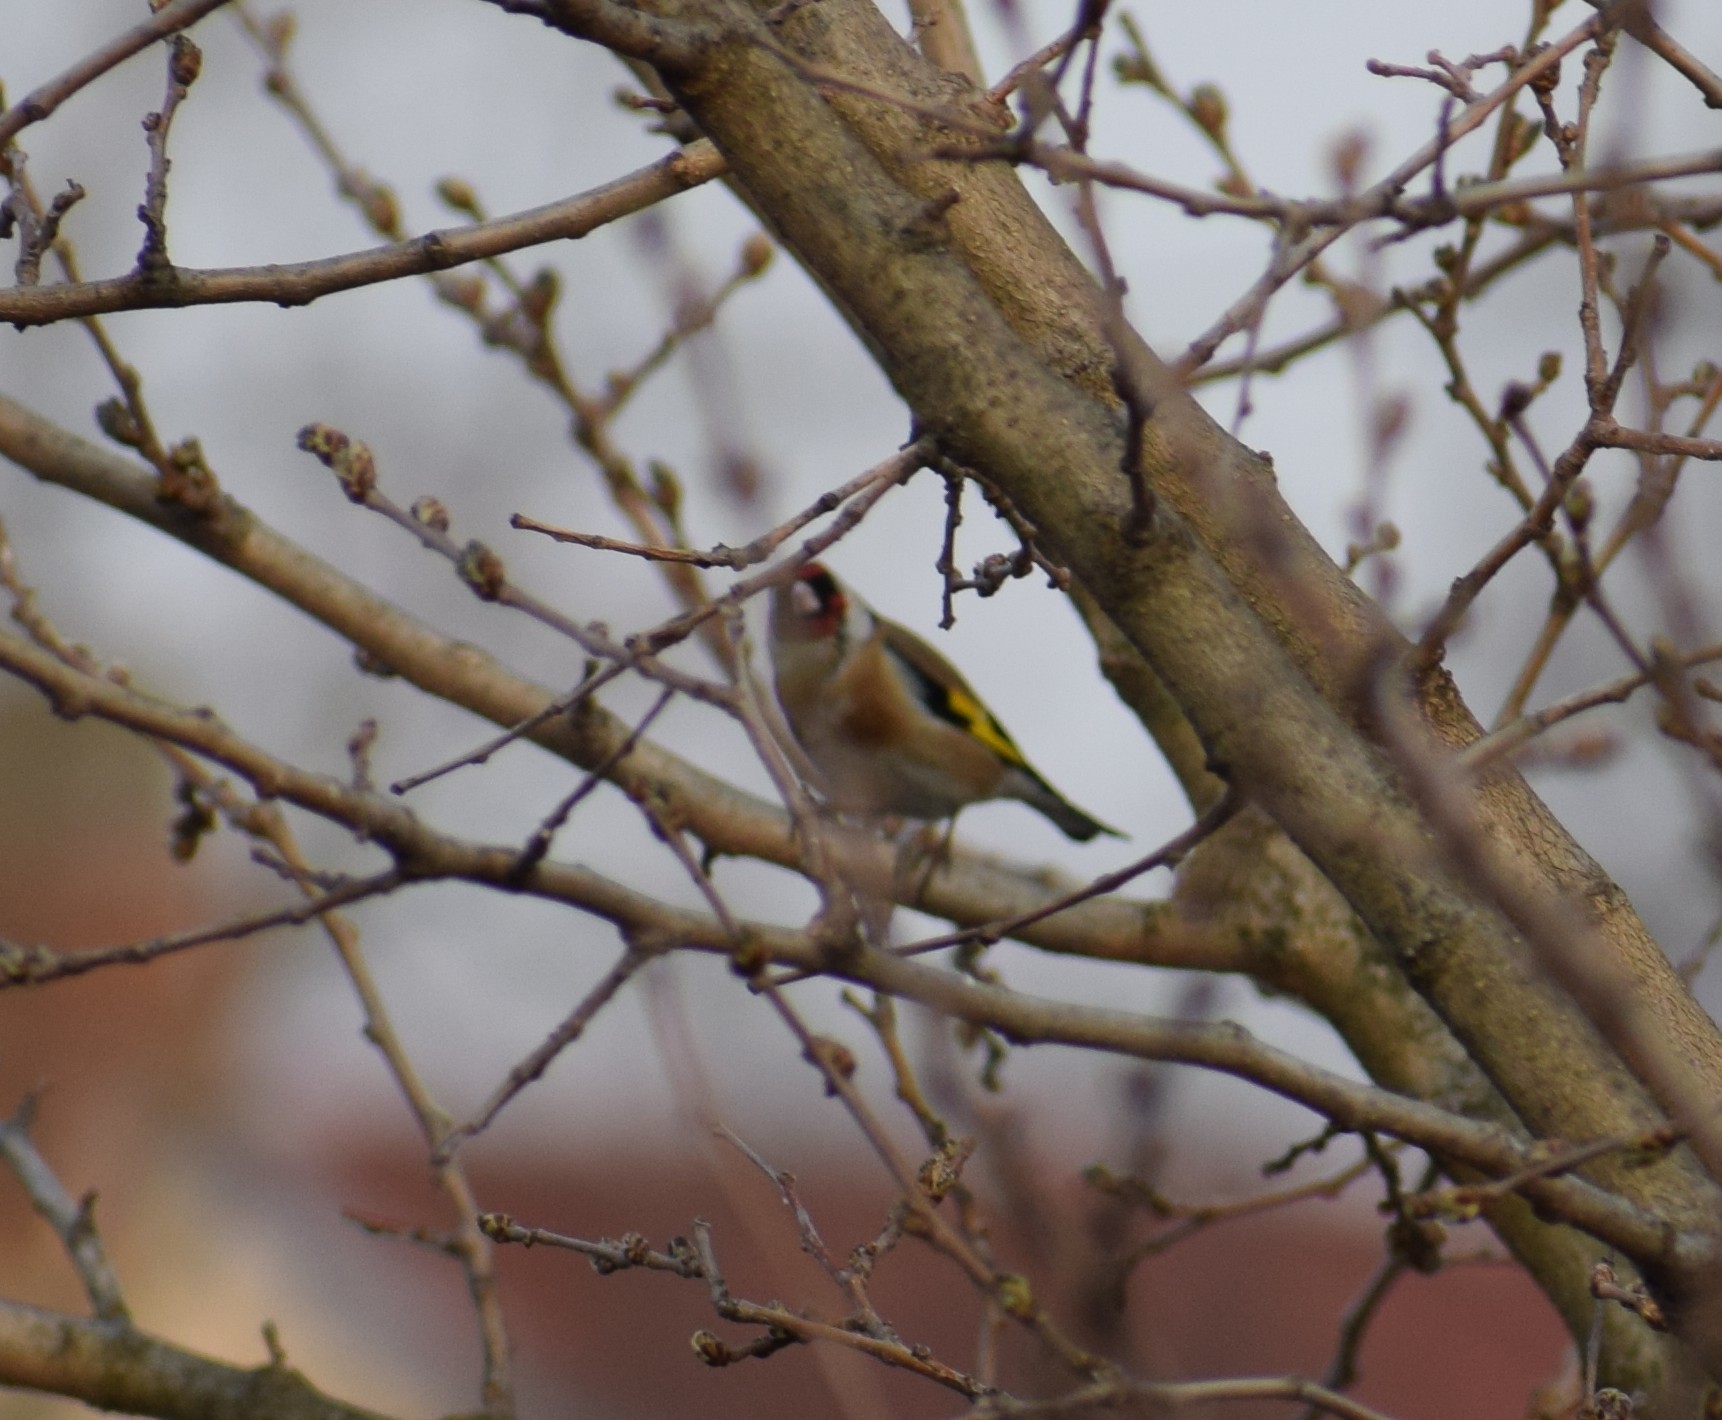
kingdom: Animalia
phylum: Chordata
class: Aves
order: Passeriformes
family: Fringillidae
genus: Carduelis
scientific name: Carduelis carduelis
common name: European goldfinch
